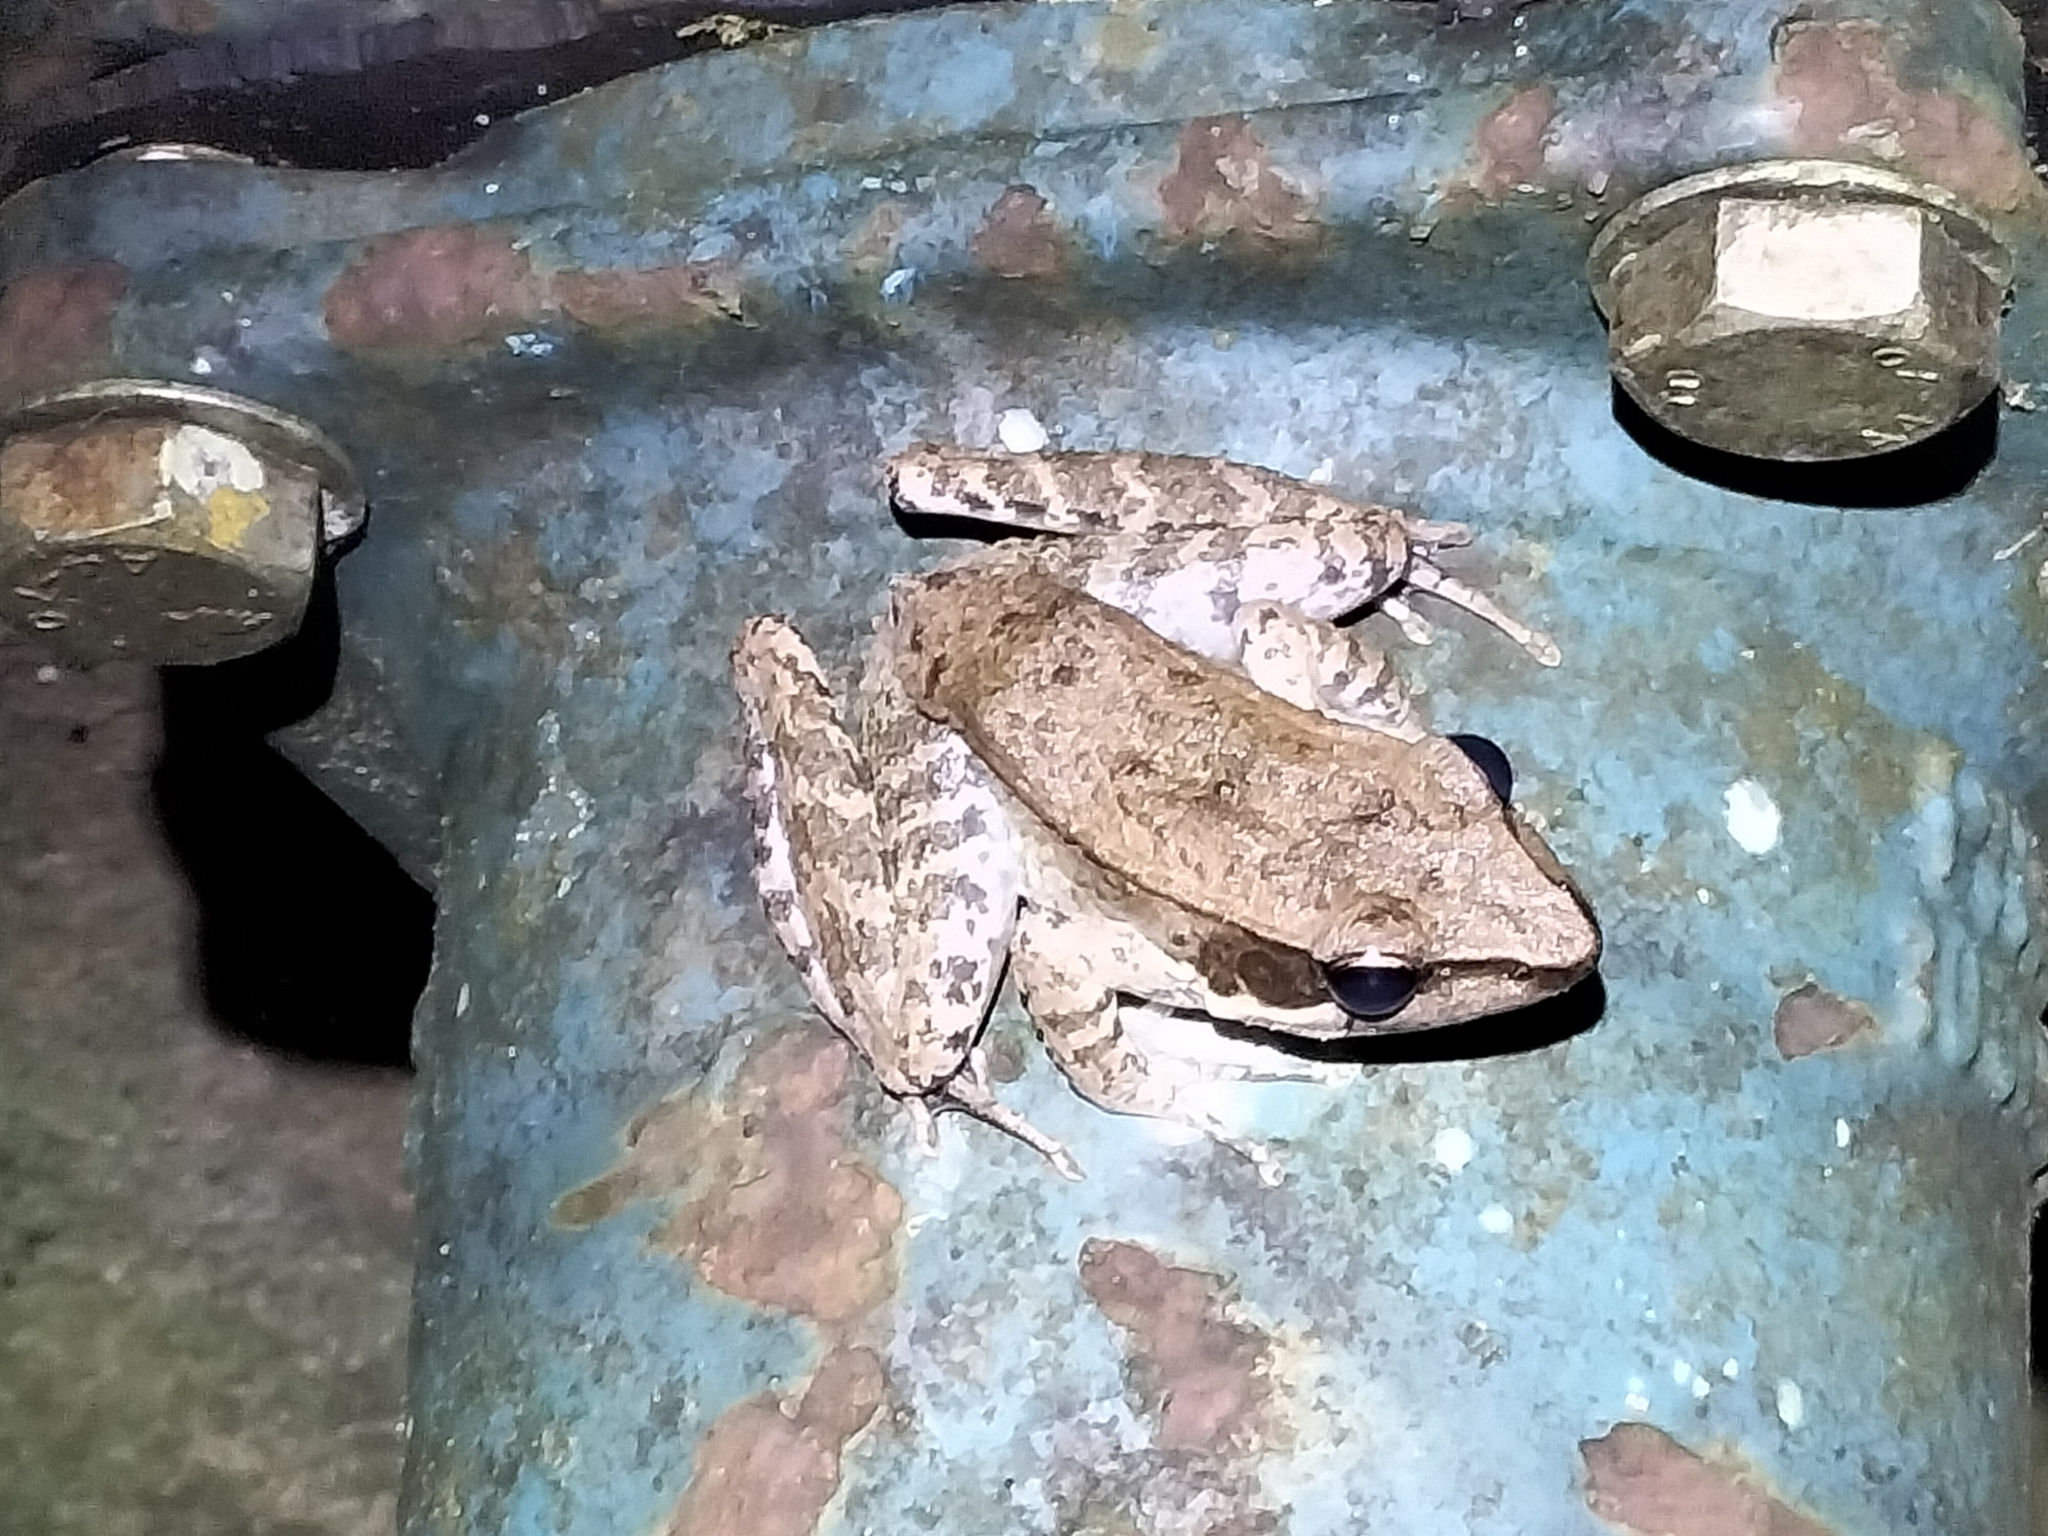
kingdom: Animalia
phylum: Chordata
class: Amphibia
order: Anura
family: Ranidae
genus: Papurana
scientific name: Papurana daemeli
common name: Arhem rana
